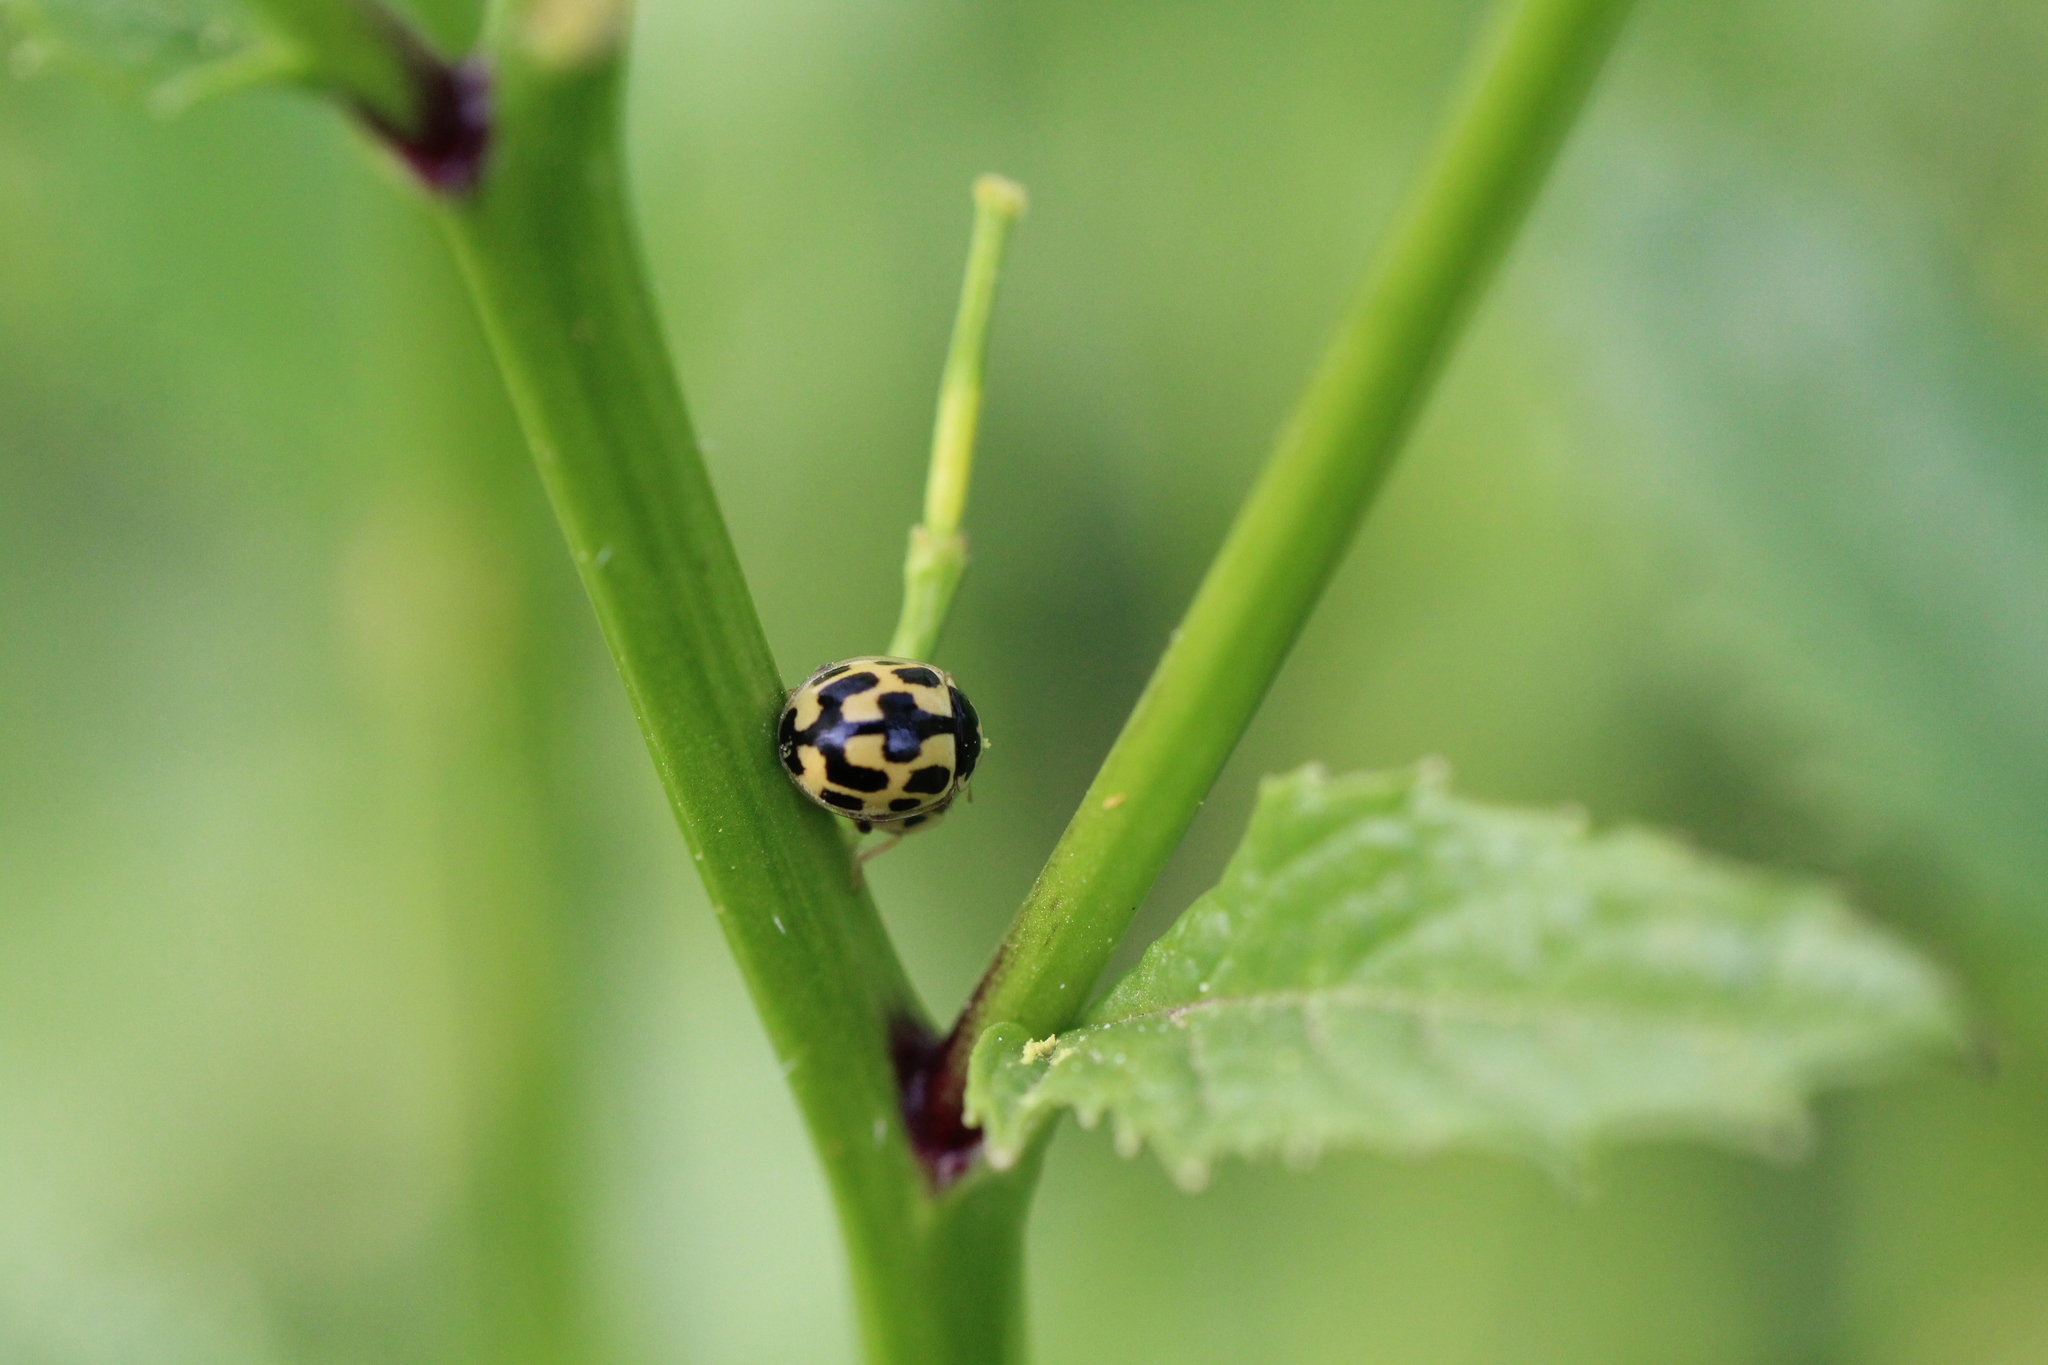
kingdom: Animalia
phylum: Arthropoda
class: Insecta
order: Coleoptera
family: Coccinellidae
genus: Propylaea
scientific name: Propylaea quatuordecimpunctata
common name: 14-spotted ladybird beetle
